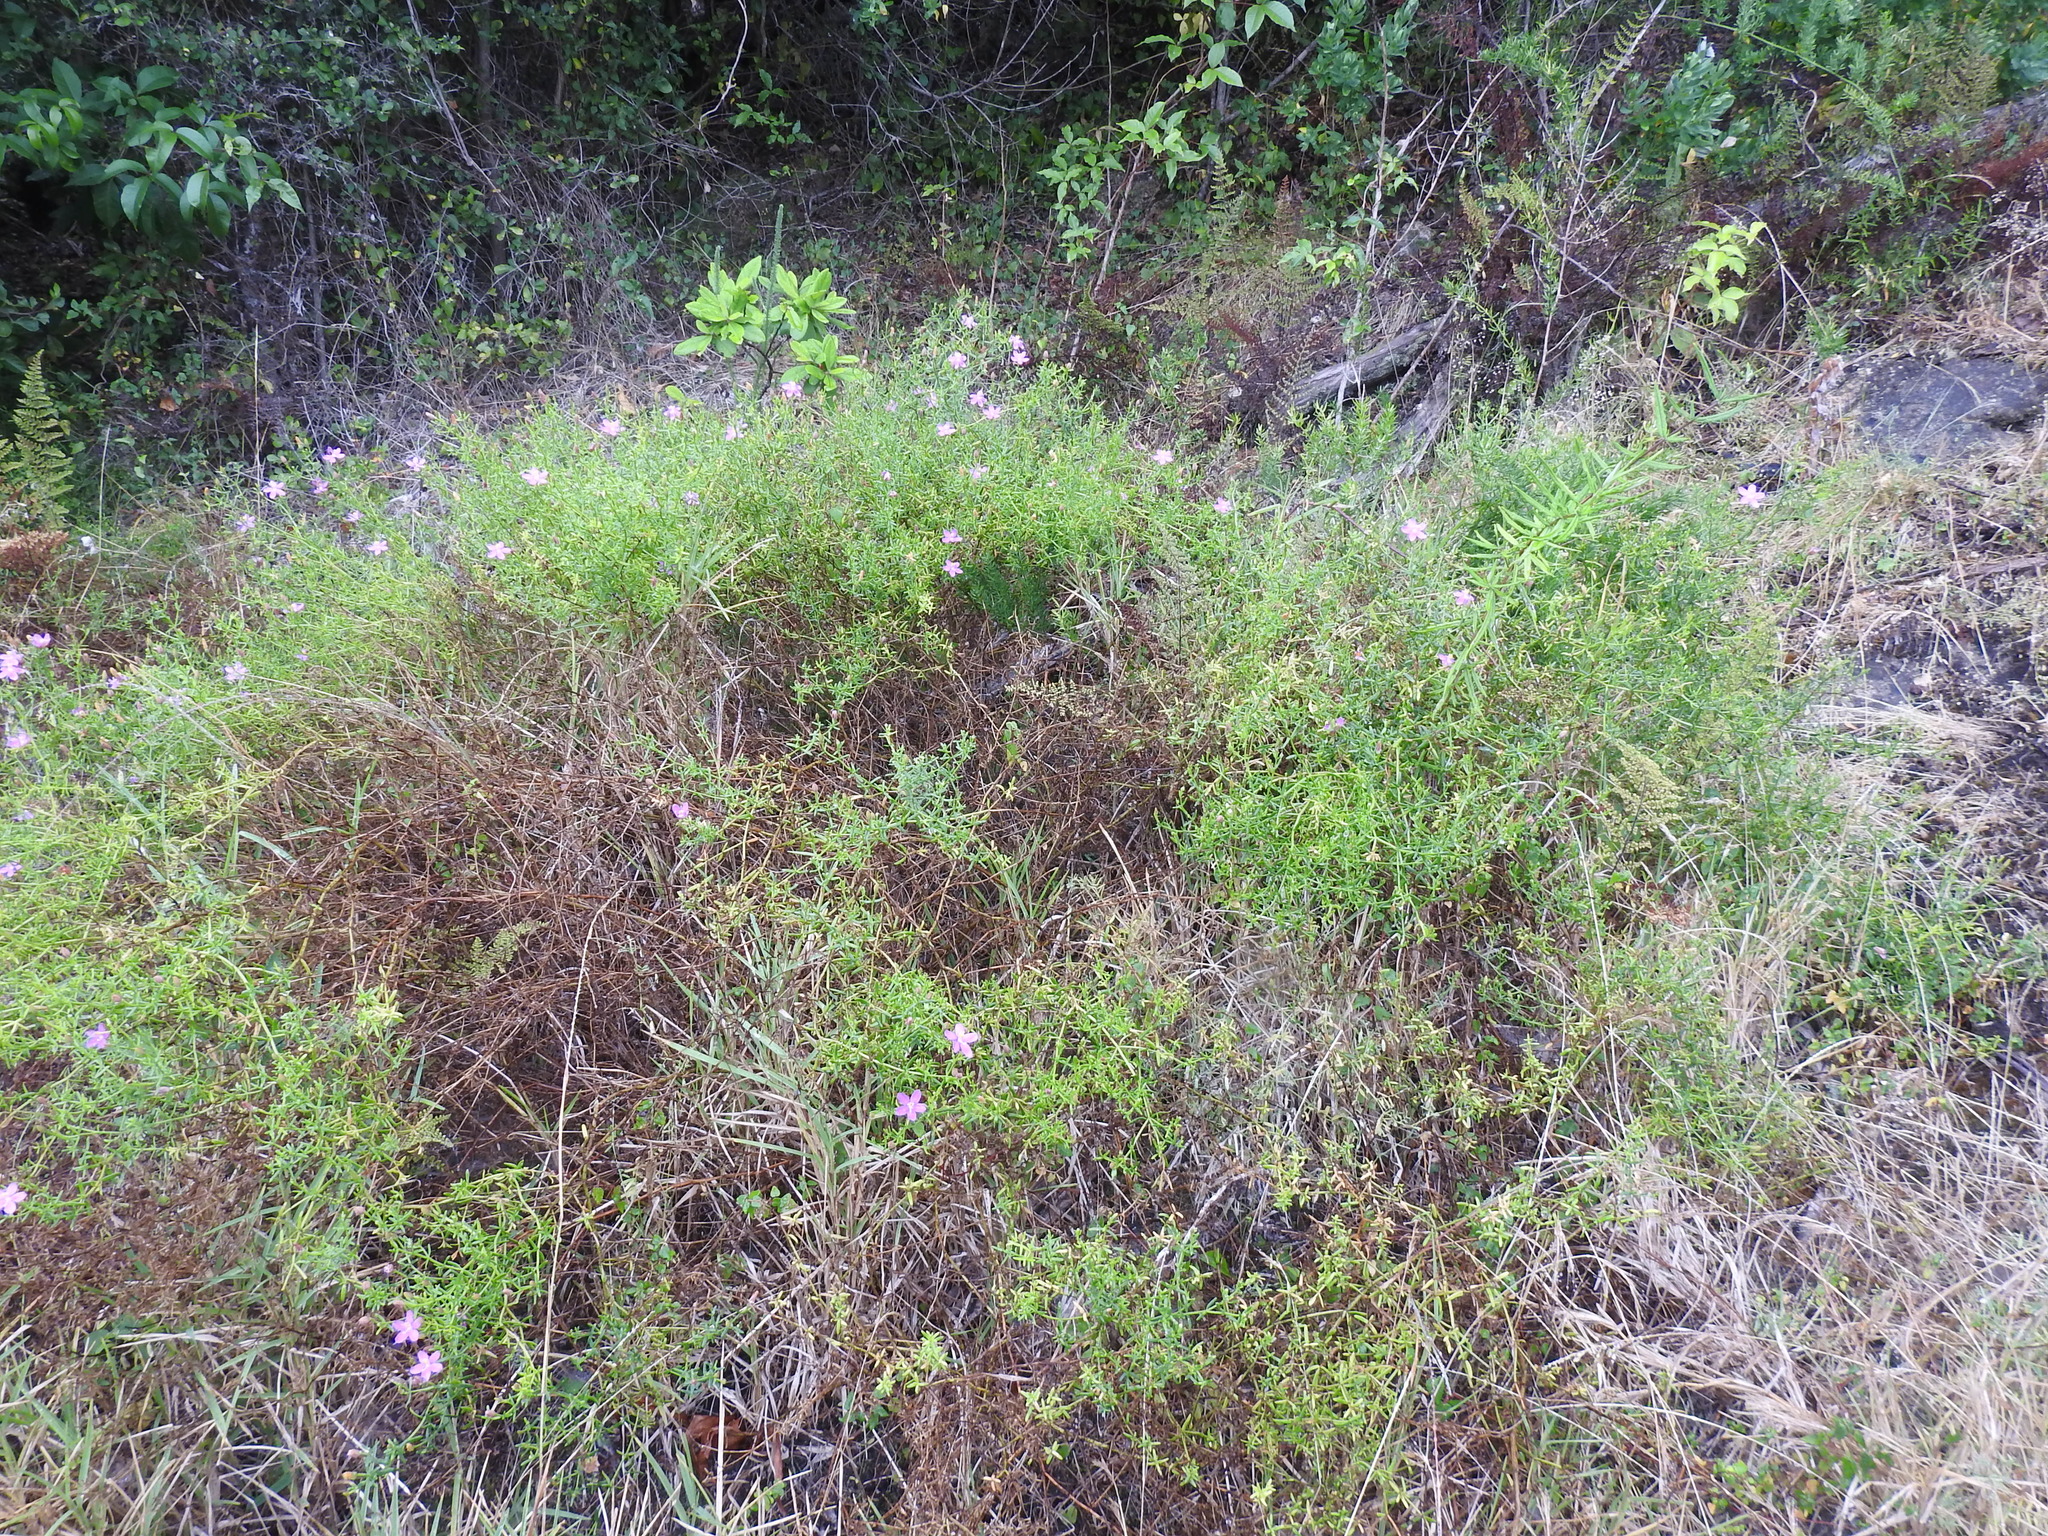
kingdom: Plantae
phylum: Tracheophyta
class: Magnoliopsida
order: Gentianales
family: Gentianaceae
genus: Chironia
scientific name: Chironia baccifera
